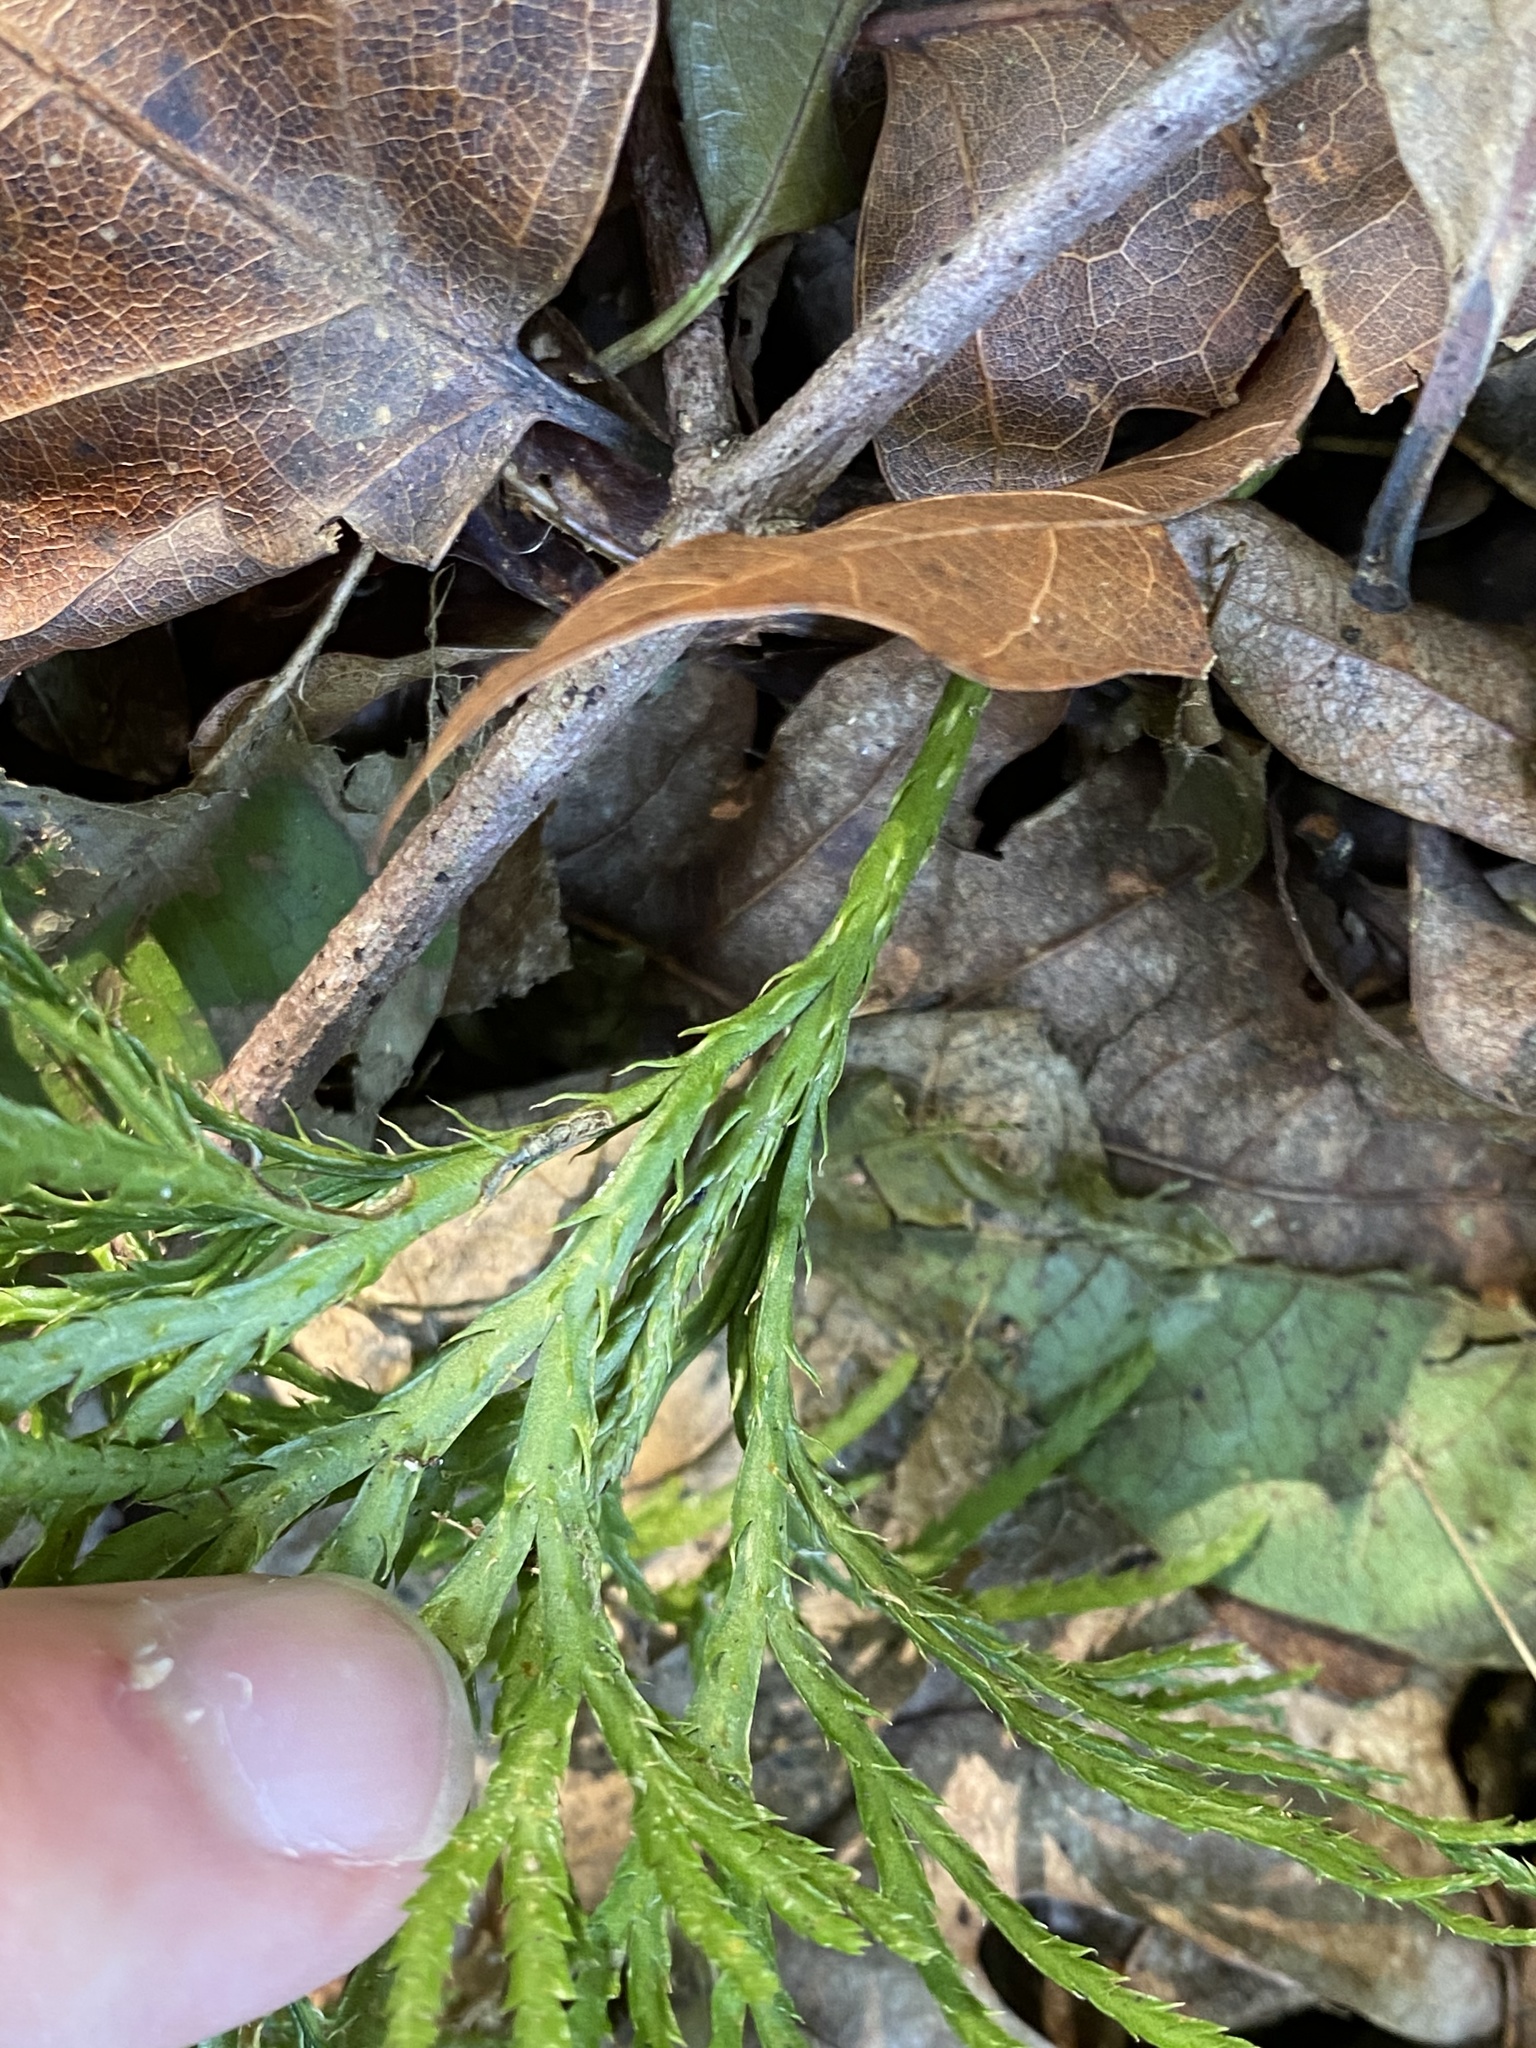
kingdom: Plantae
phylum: Tracheophyta
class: Lycopodiopsida
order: Lycopodiales
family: Lycopodiaceae
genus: Diphasiastrum
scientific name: Diphasiastrum digitatum
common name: Southern running-pine
